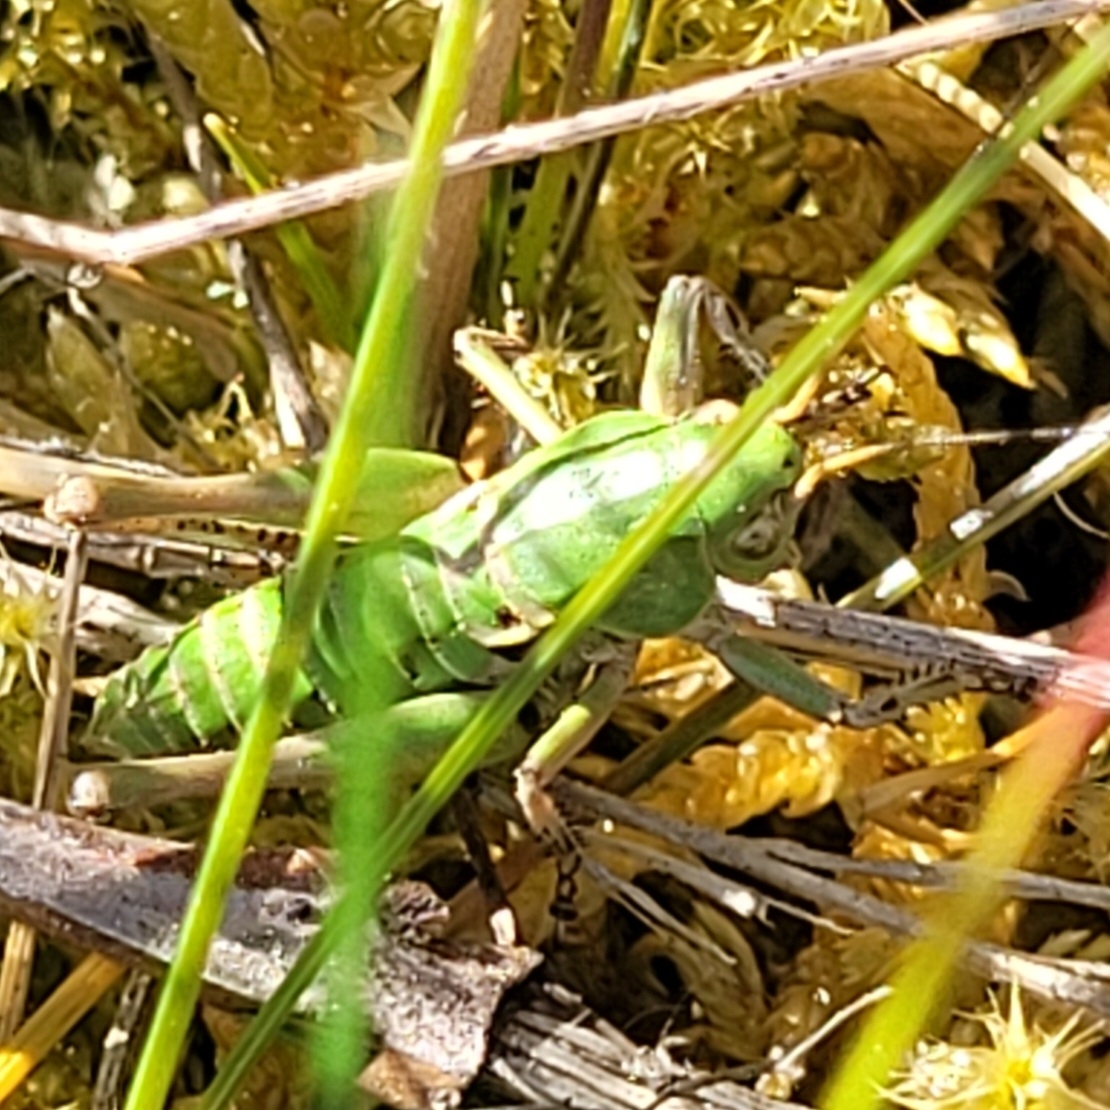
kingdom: Animalia
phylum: Arthropoda
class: Insecta
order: Orthoptera
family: Tettigoniidae
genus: Decticus
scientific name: Decticus verrucivorus
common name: Wart-biter
